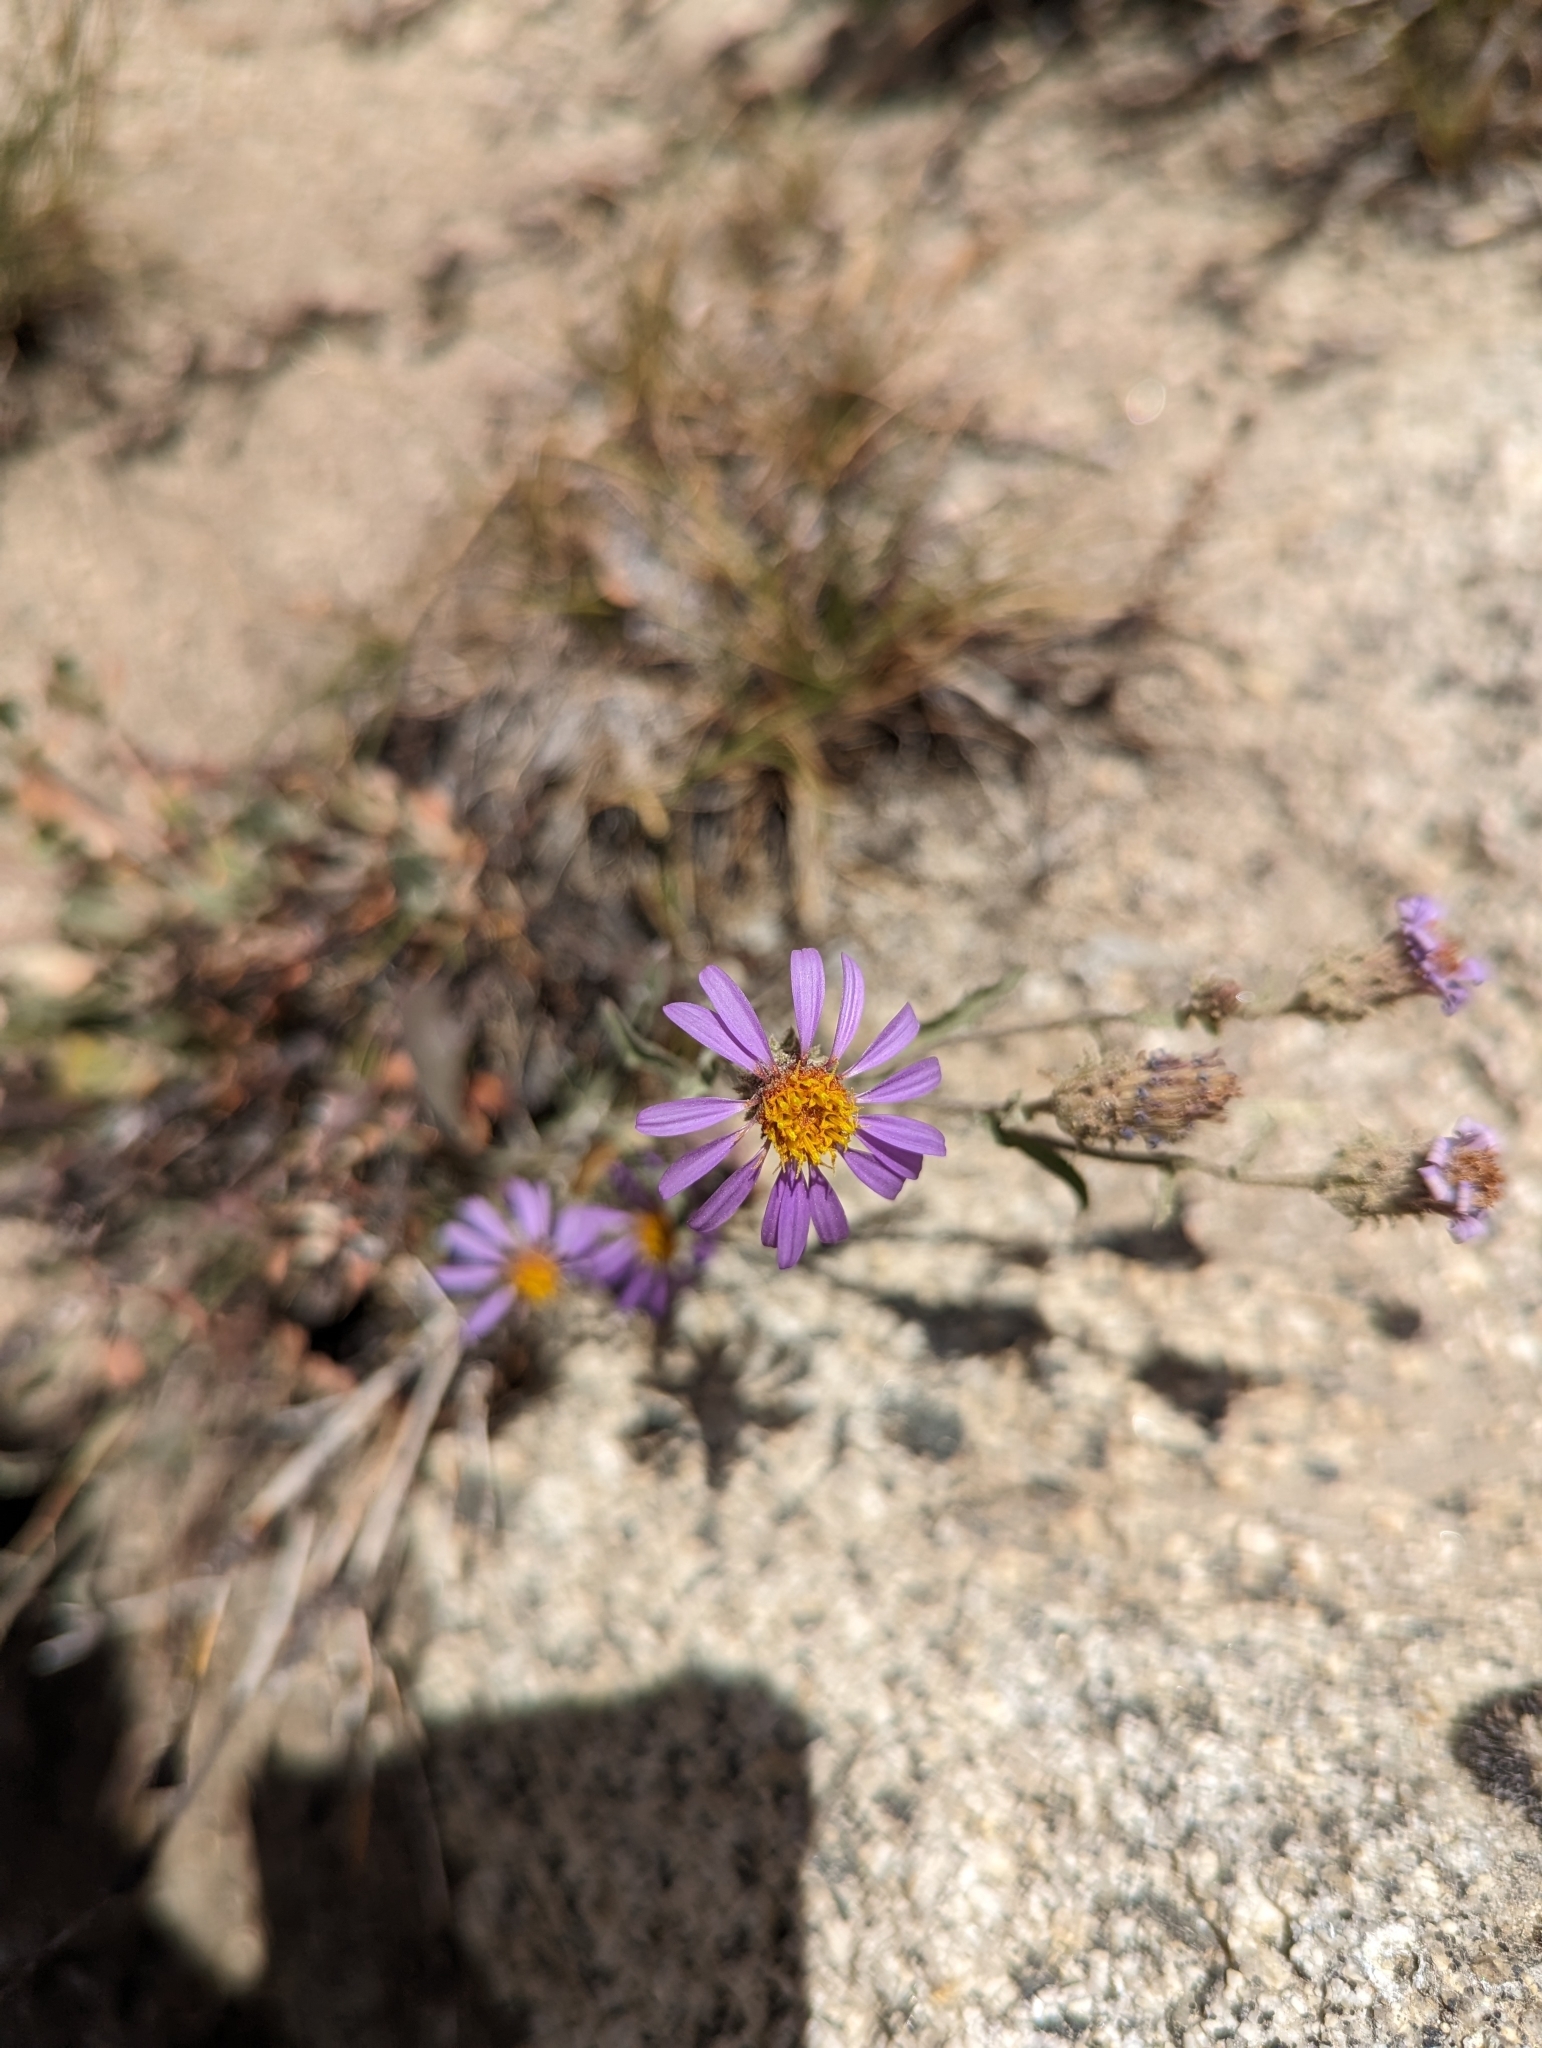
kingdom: Plantae
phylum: Tracheophyta
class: Magnoliopsida
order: Asterales
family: Asteraceae
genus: Dieteria
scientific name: Dieteria canescens
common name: Hoary-aster
